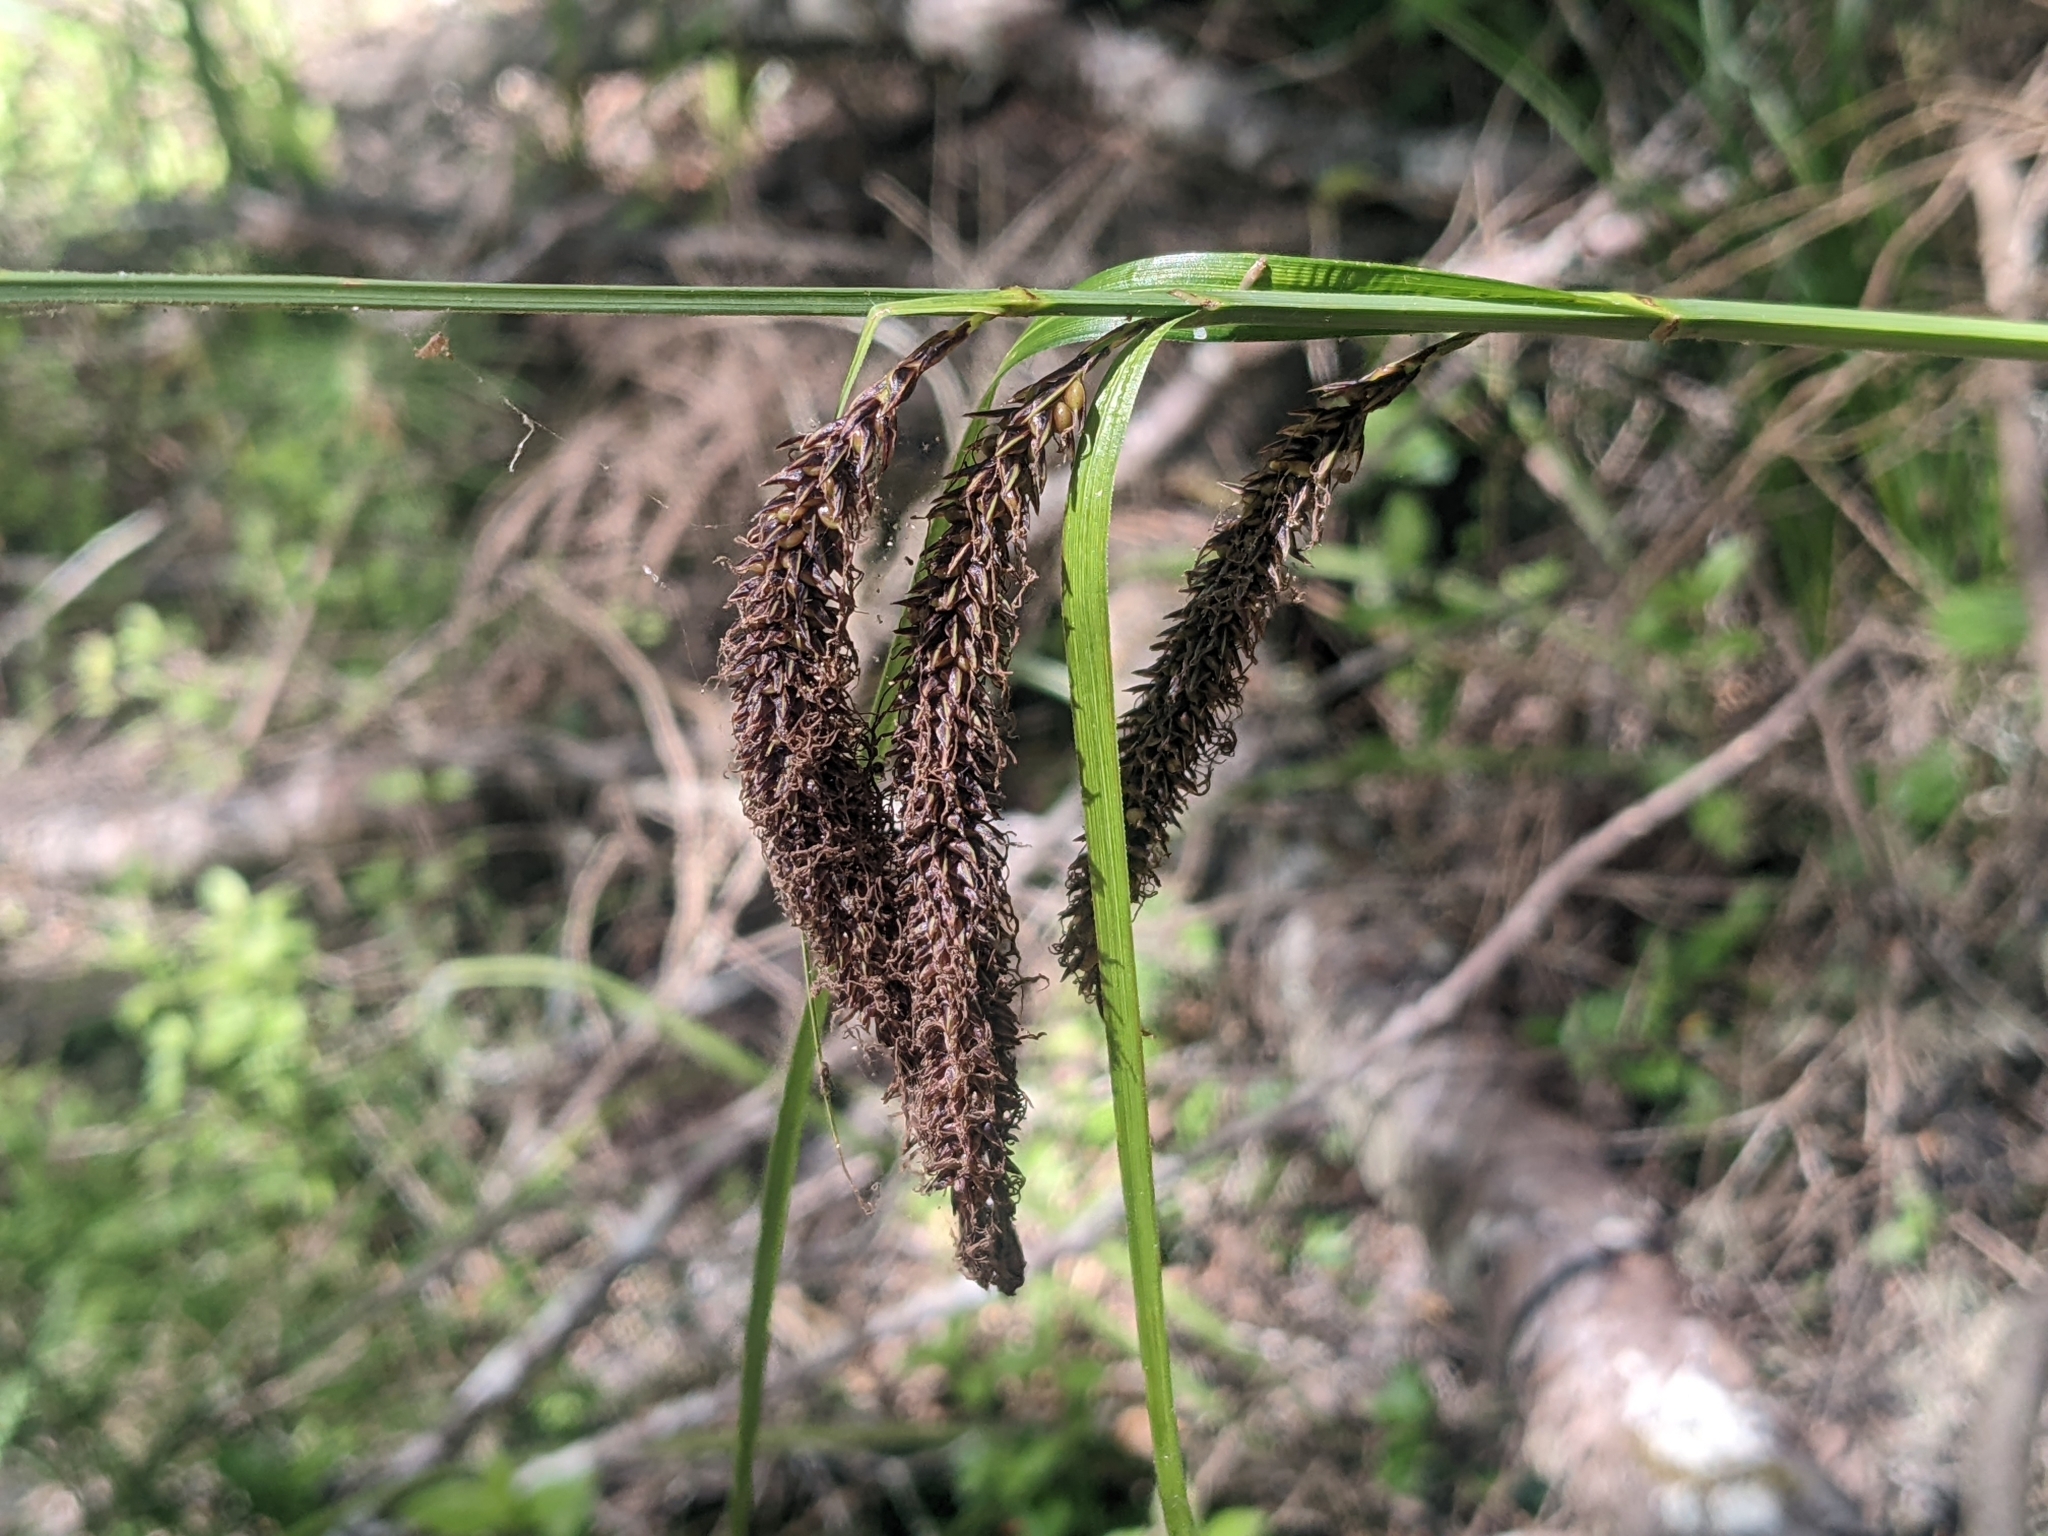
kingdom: Plantae
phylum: Tracheophyta
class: Liliopsida
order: Poales
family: Cyperaceae
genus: Carex
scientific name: Carex obnupta
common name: Slough sedge
